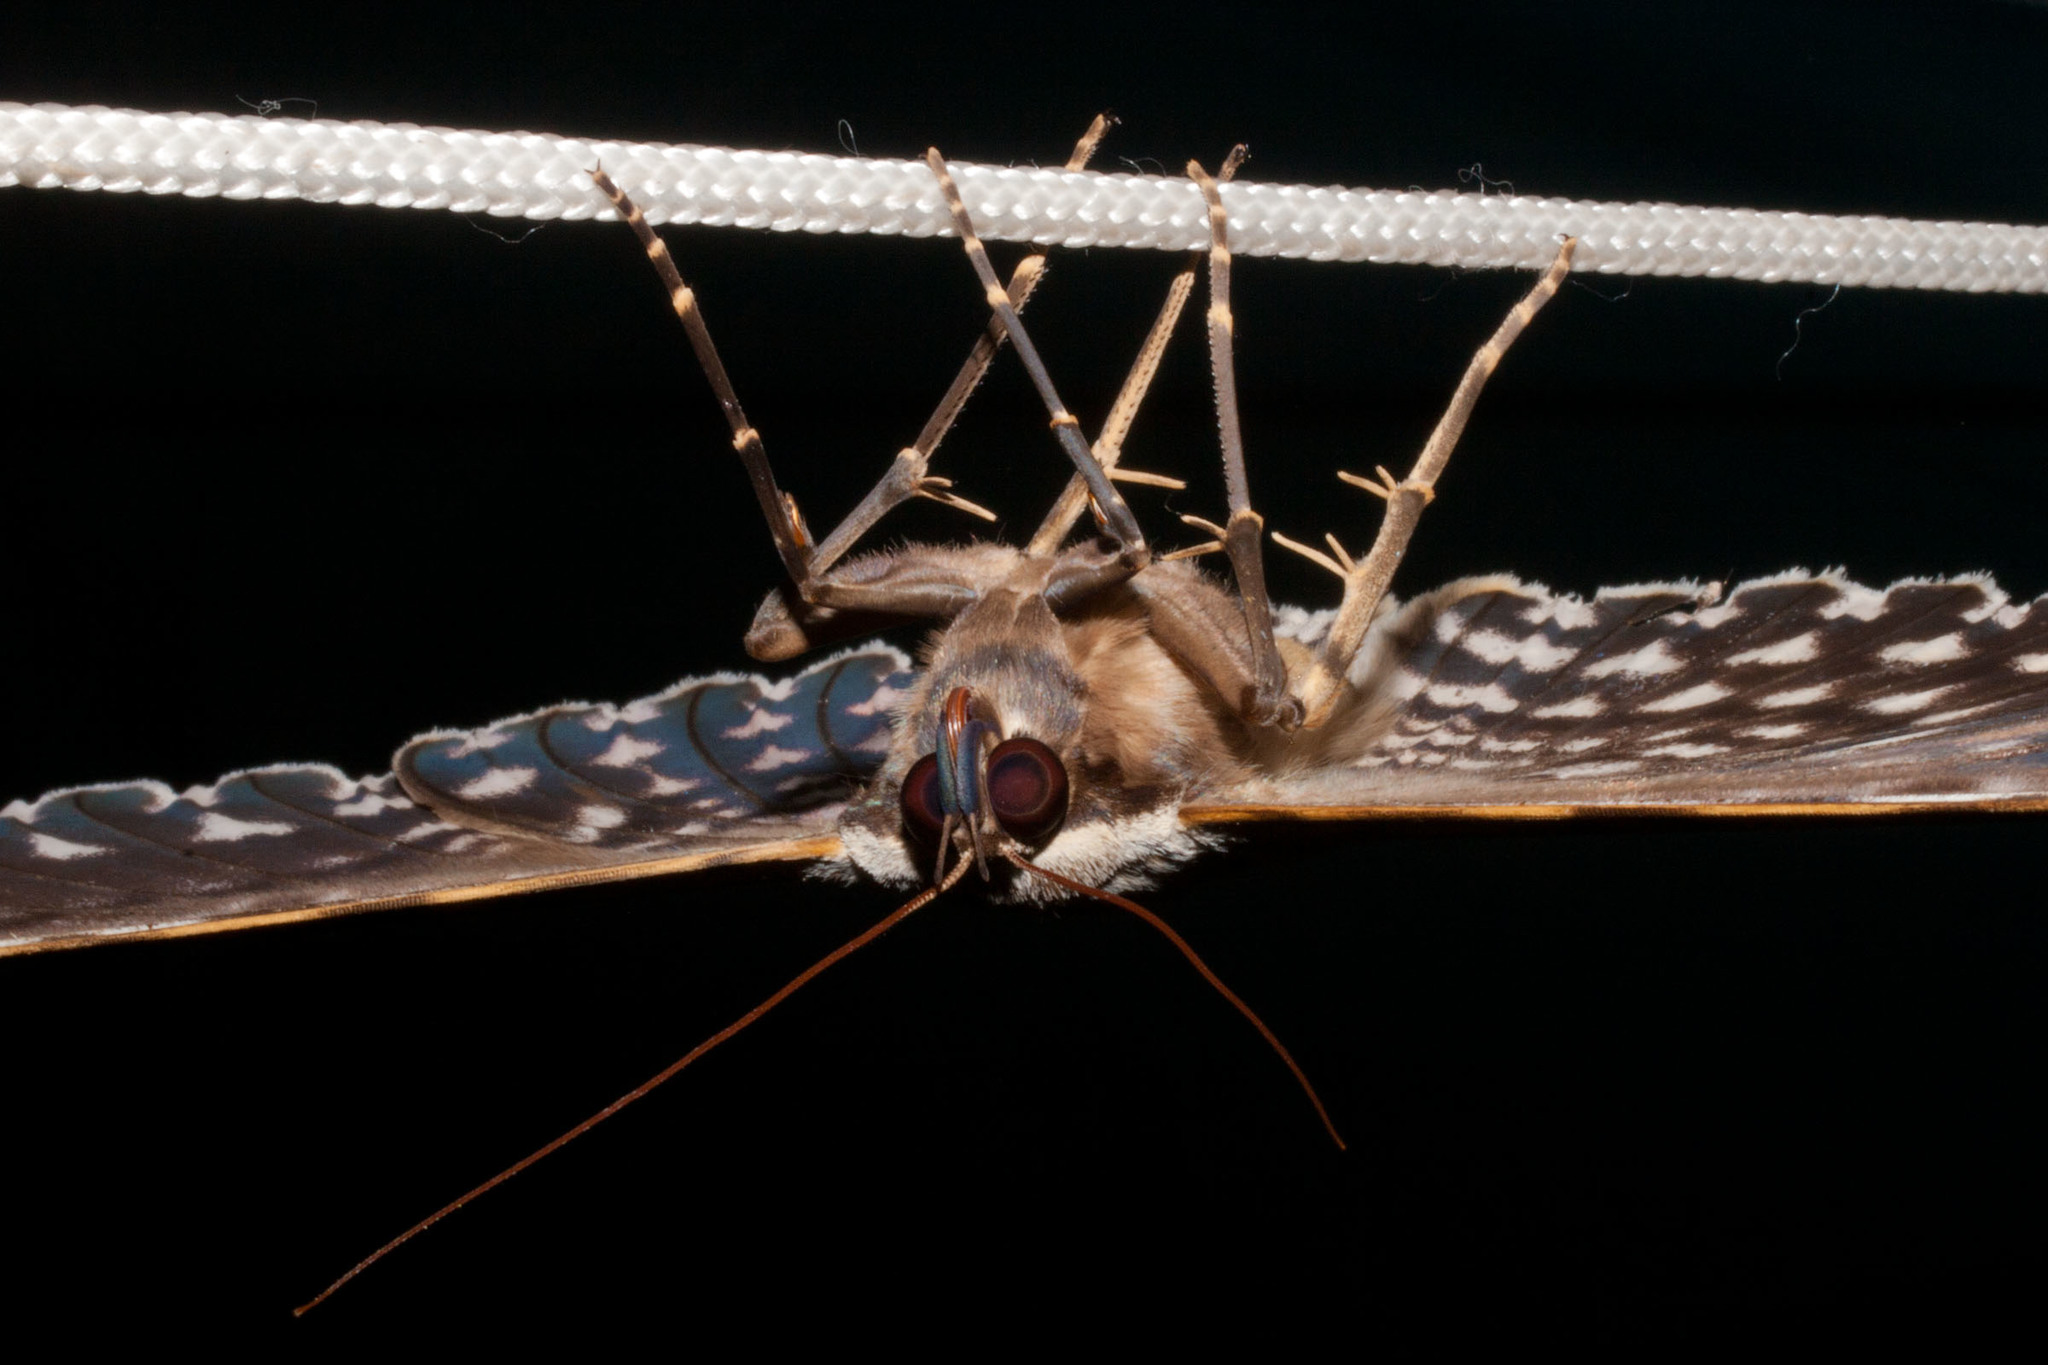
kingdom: Animalia
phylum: Arthropoda
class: Insecta
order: Lepidoptera
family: Erebidae
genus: Thysania
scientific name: Thysania agrippina
